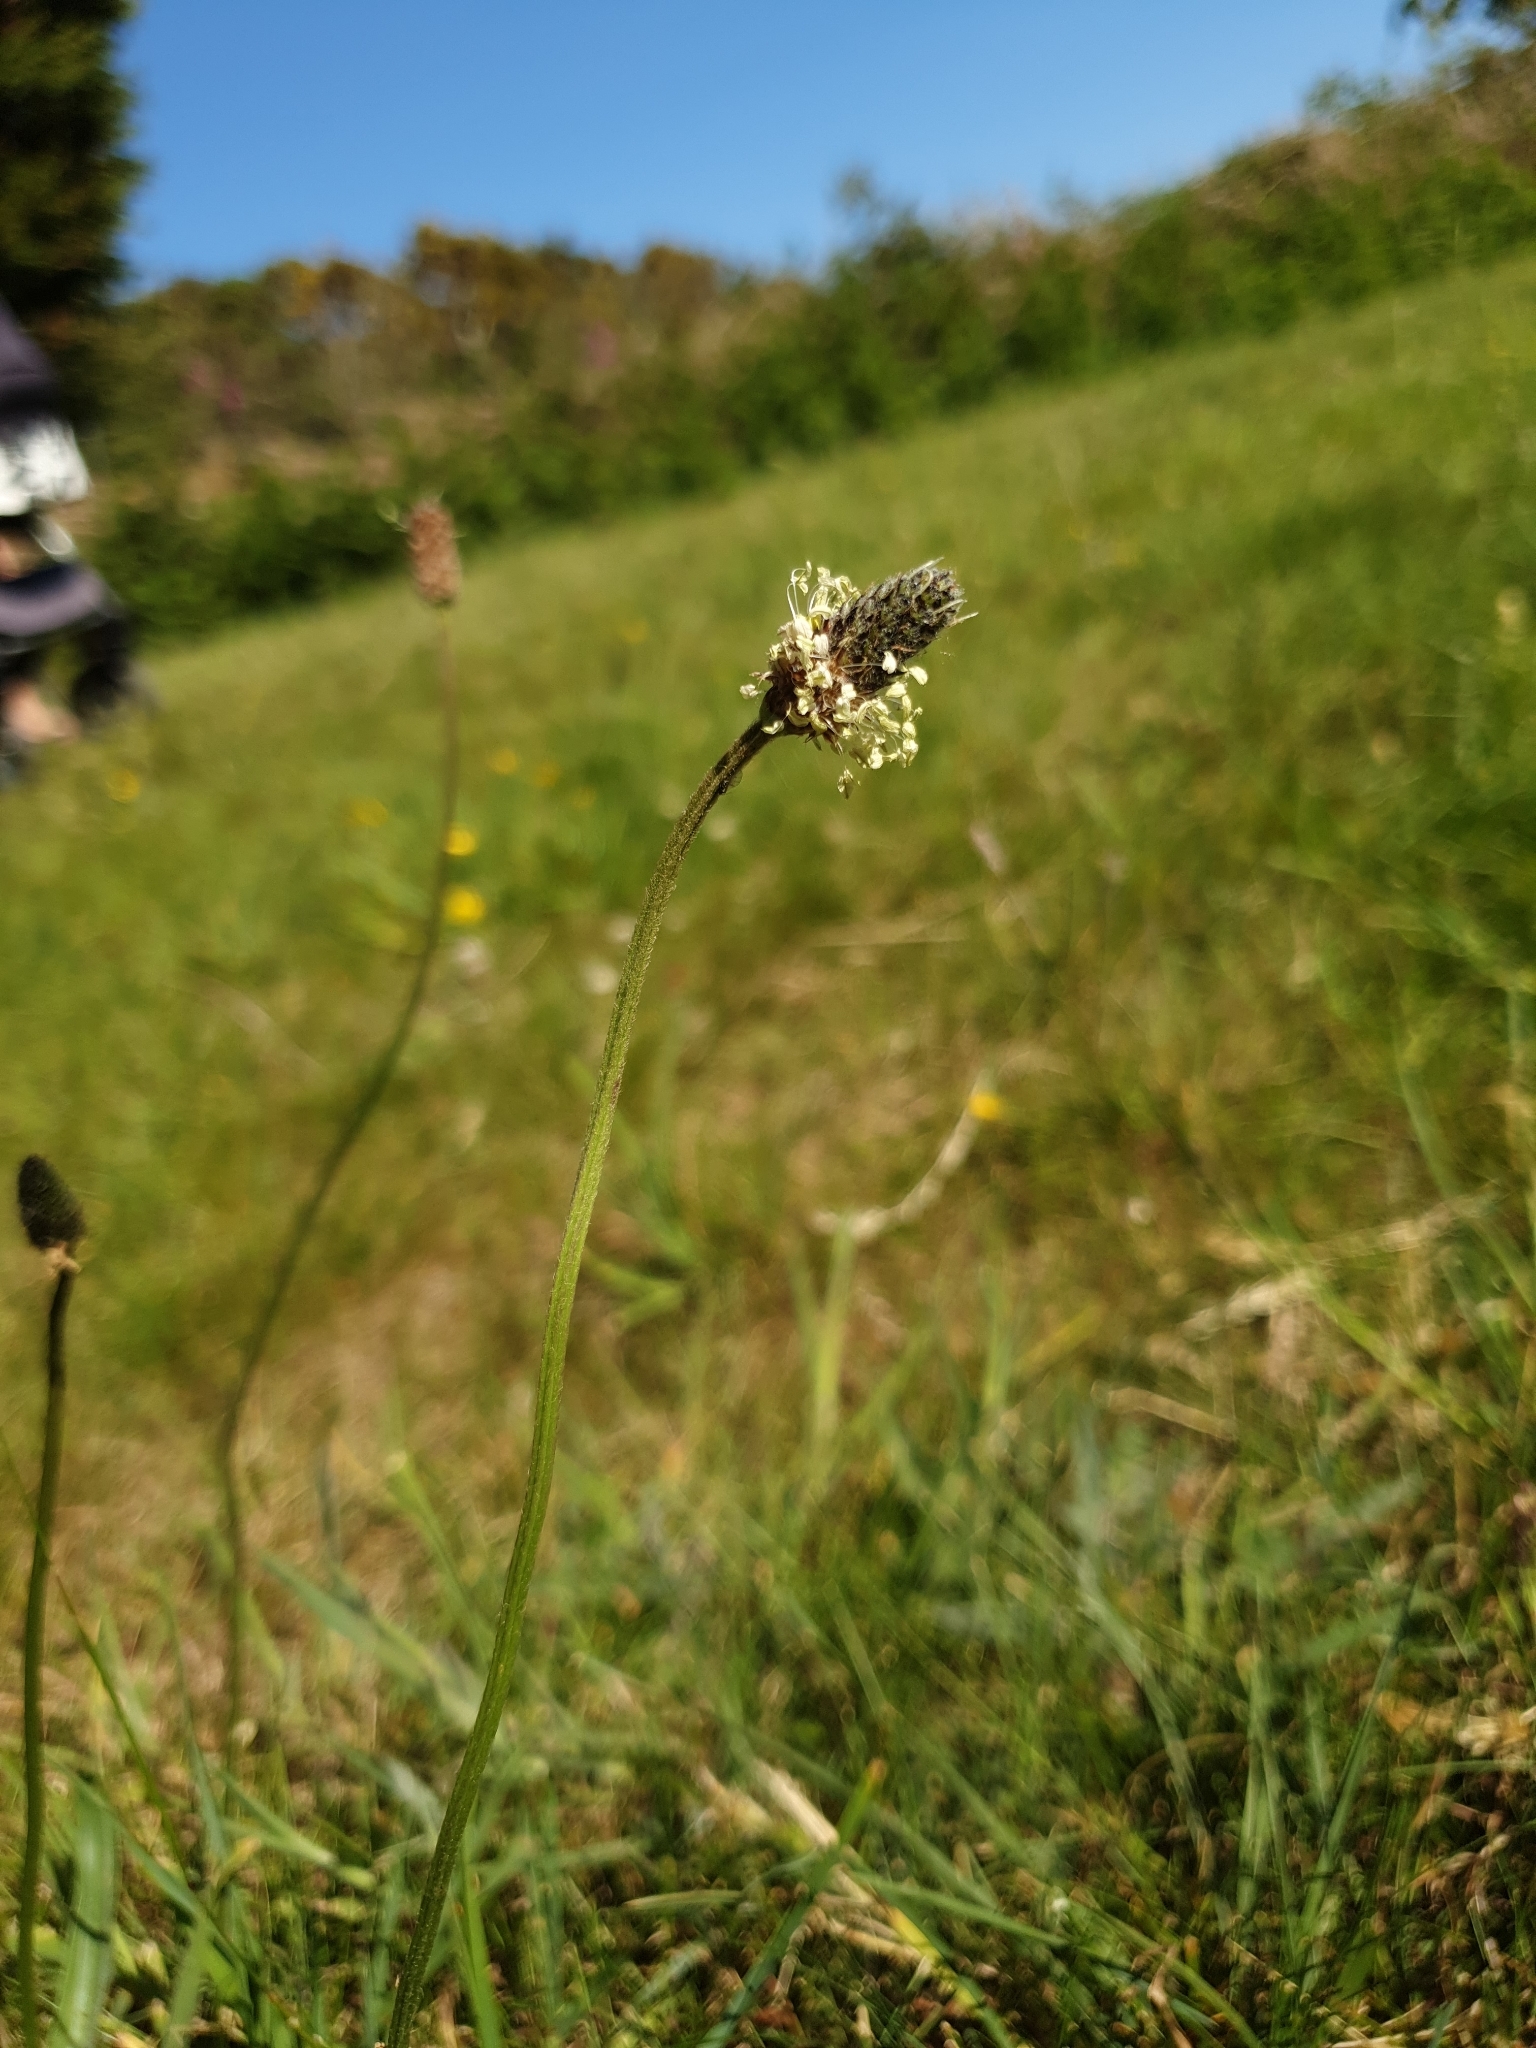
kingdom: Plantae
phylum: Tracheophyta
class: Magnoliopsida
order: Lamiales
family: Plantaginaceae
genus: Plantago
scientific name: Plantago lanceolata
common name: Ribwort plantain
